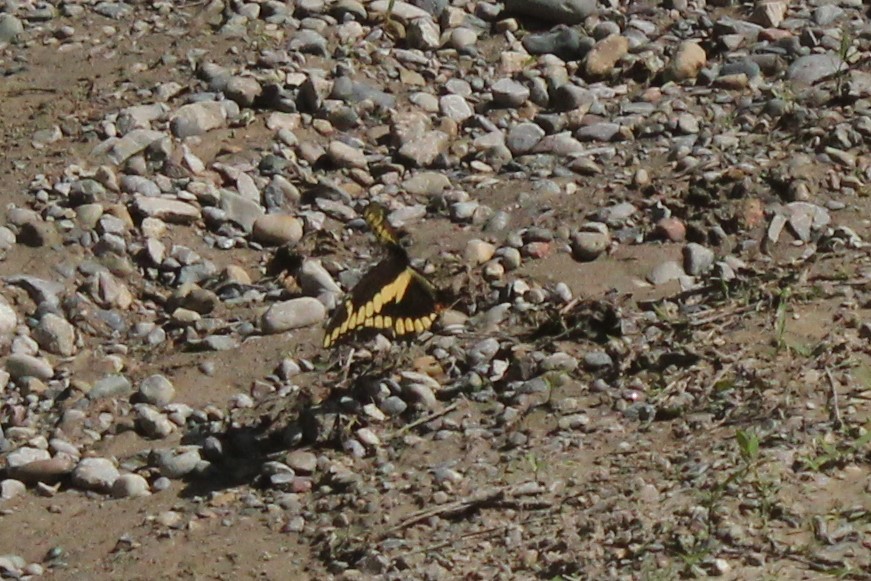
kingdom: Animalia
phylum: Arthropoda
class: Insecta
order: Lepidoptera
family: Papilionidae
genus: Papilio
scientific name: Papilio cresphontes
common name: Giant swallowtail
